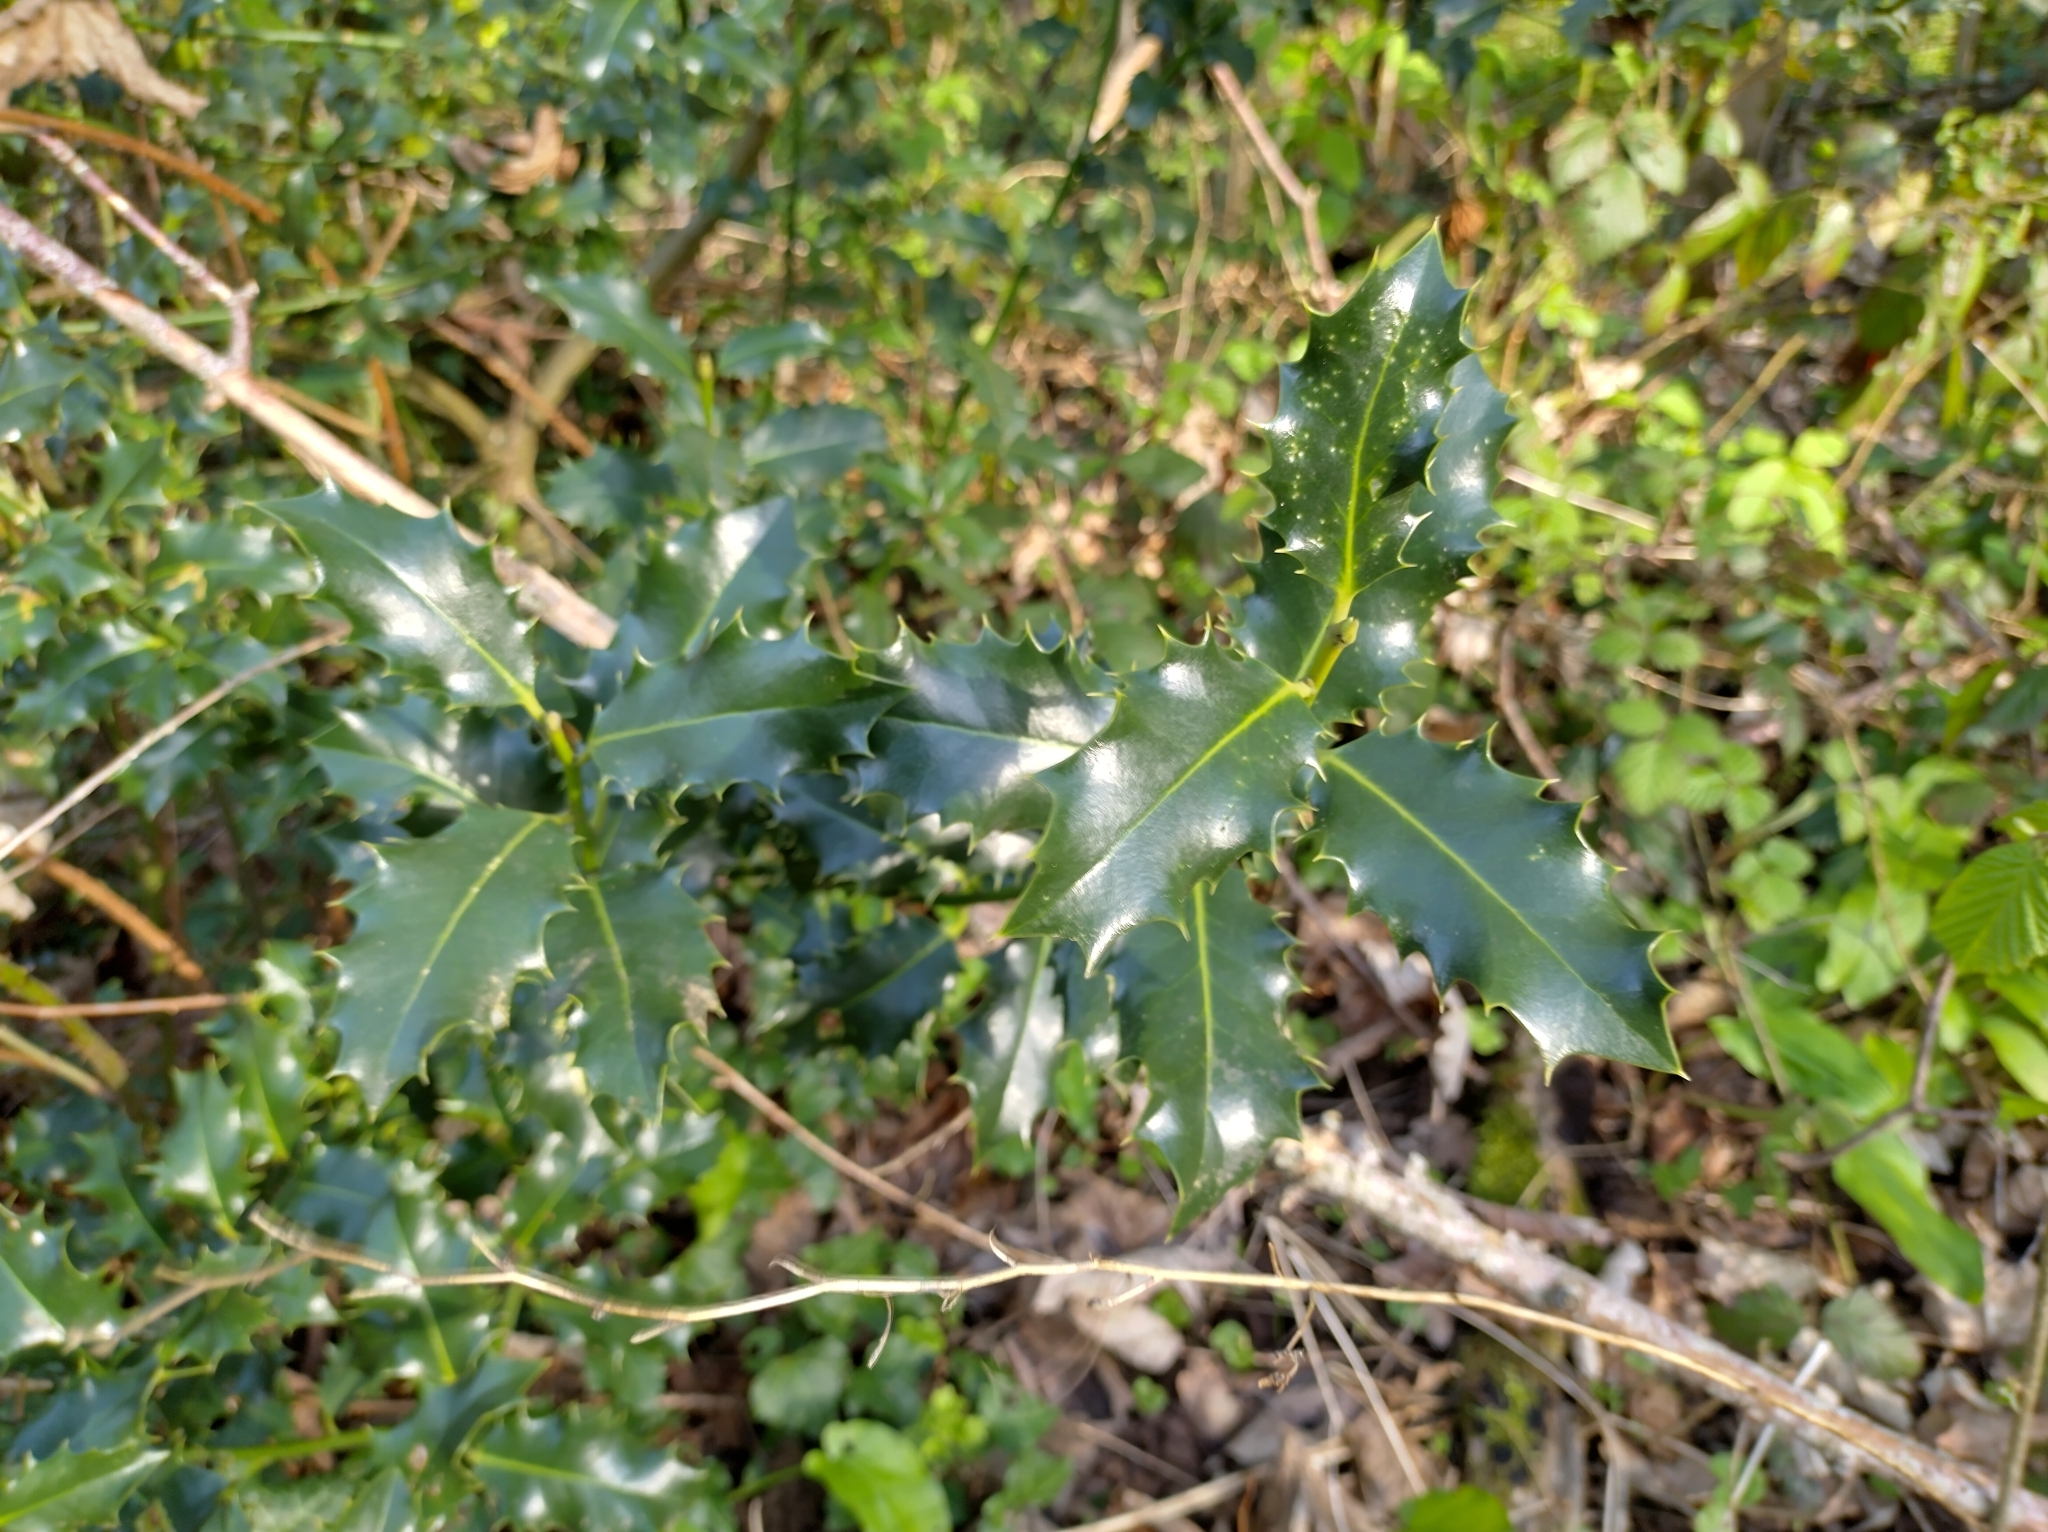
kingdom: Plantae
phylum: Tracheophyta
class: Magnoliopsida
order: Aquifoliales
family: Aquifoliaceae
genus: Ilex
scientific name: Ilex aquifolium
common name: English holly
